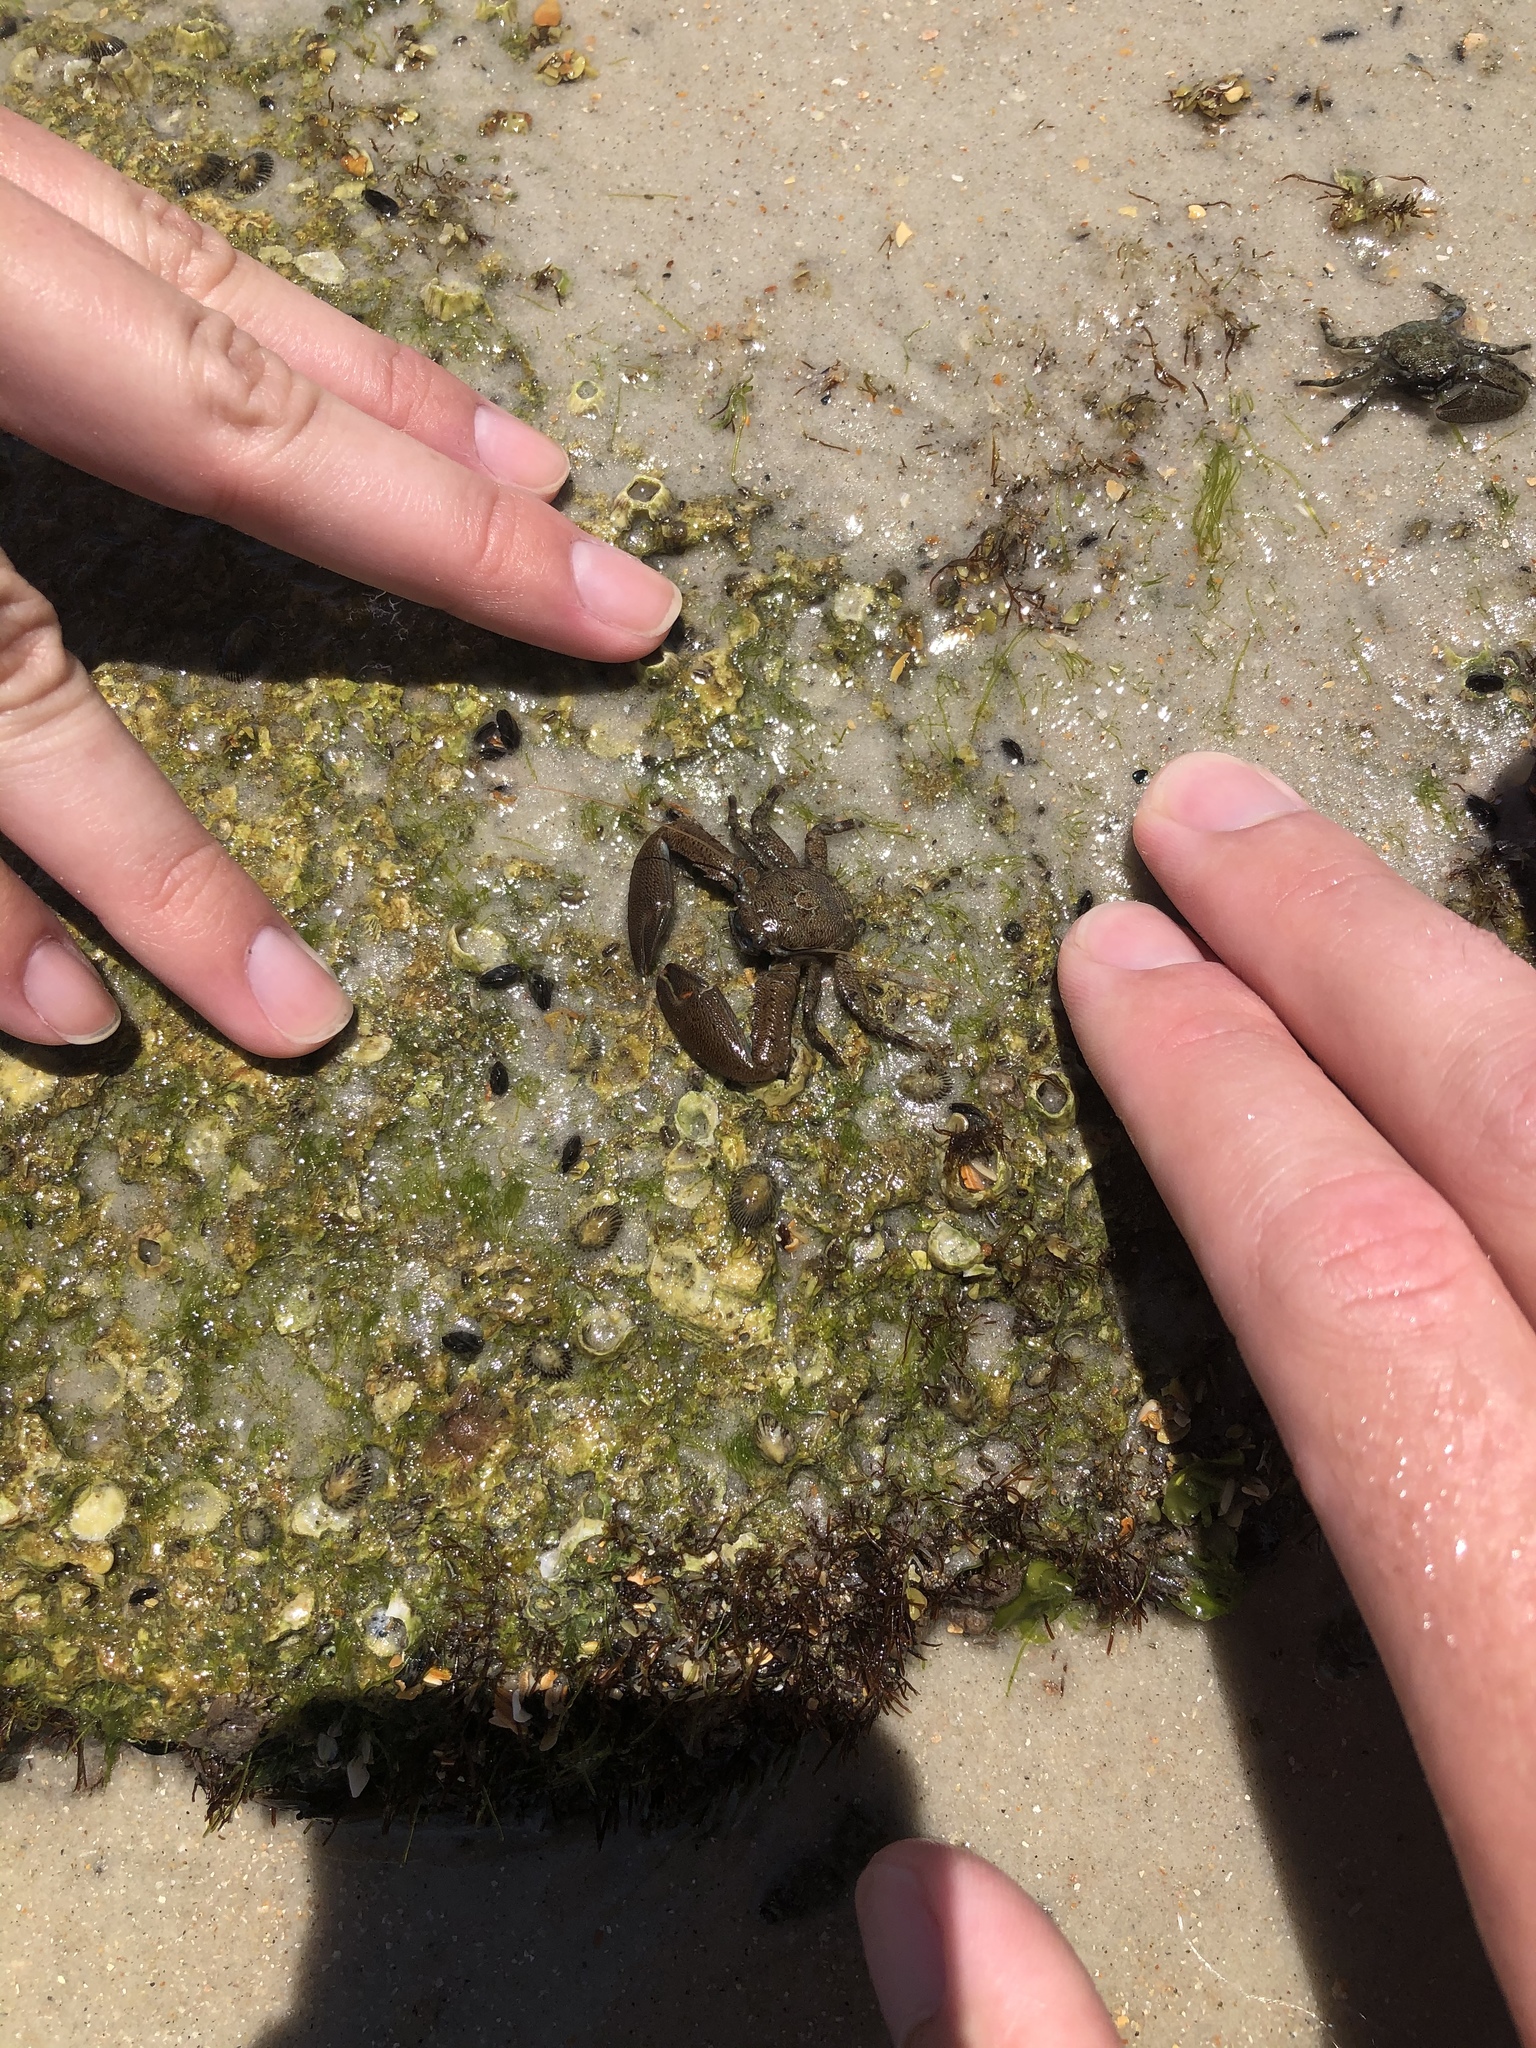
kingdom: Animalia
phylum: Arthropoda
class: Malacostraca
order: Decapoda
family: Porcellanidae
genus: Petrolisthes
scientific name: Petrolisthes armatus
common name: Green porcelain crab
